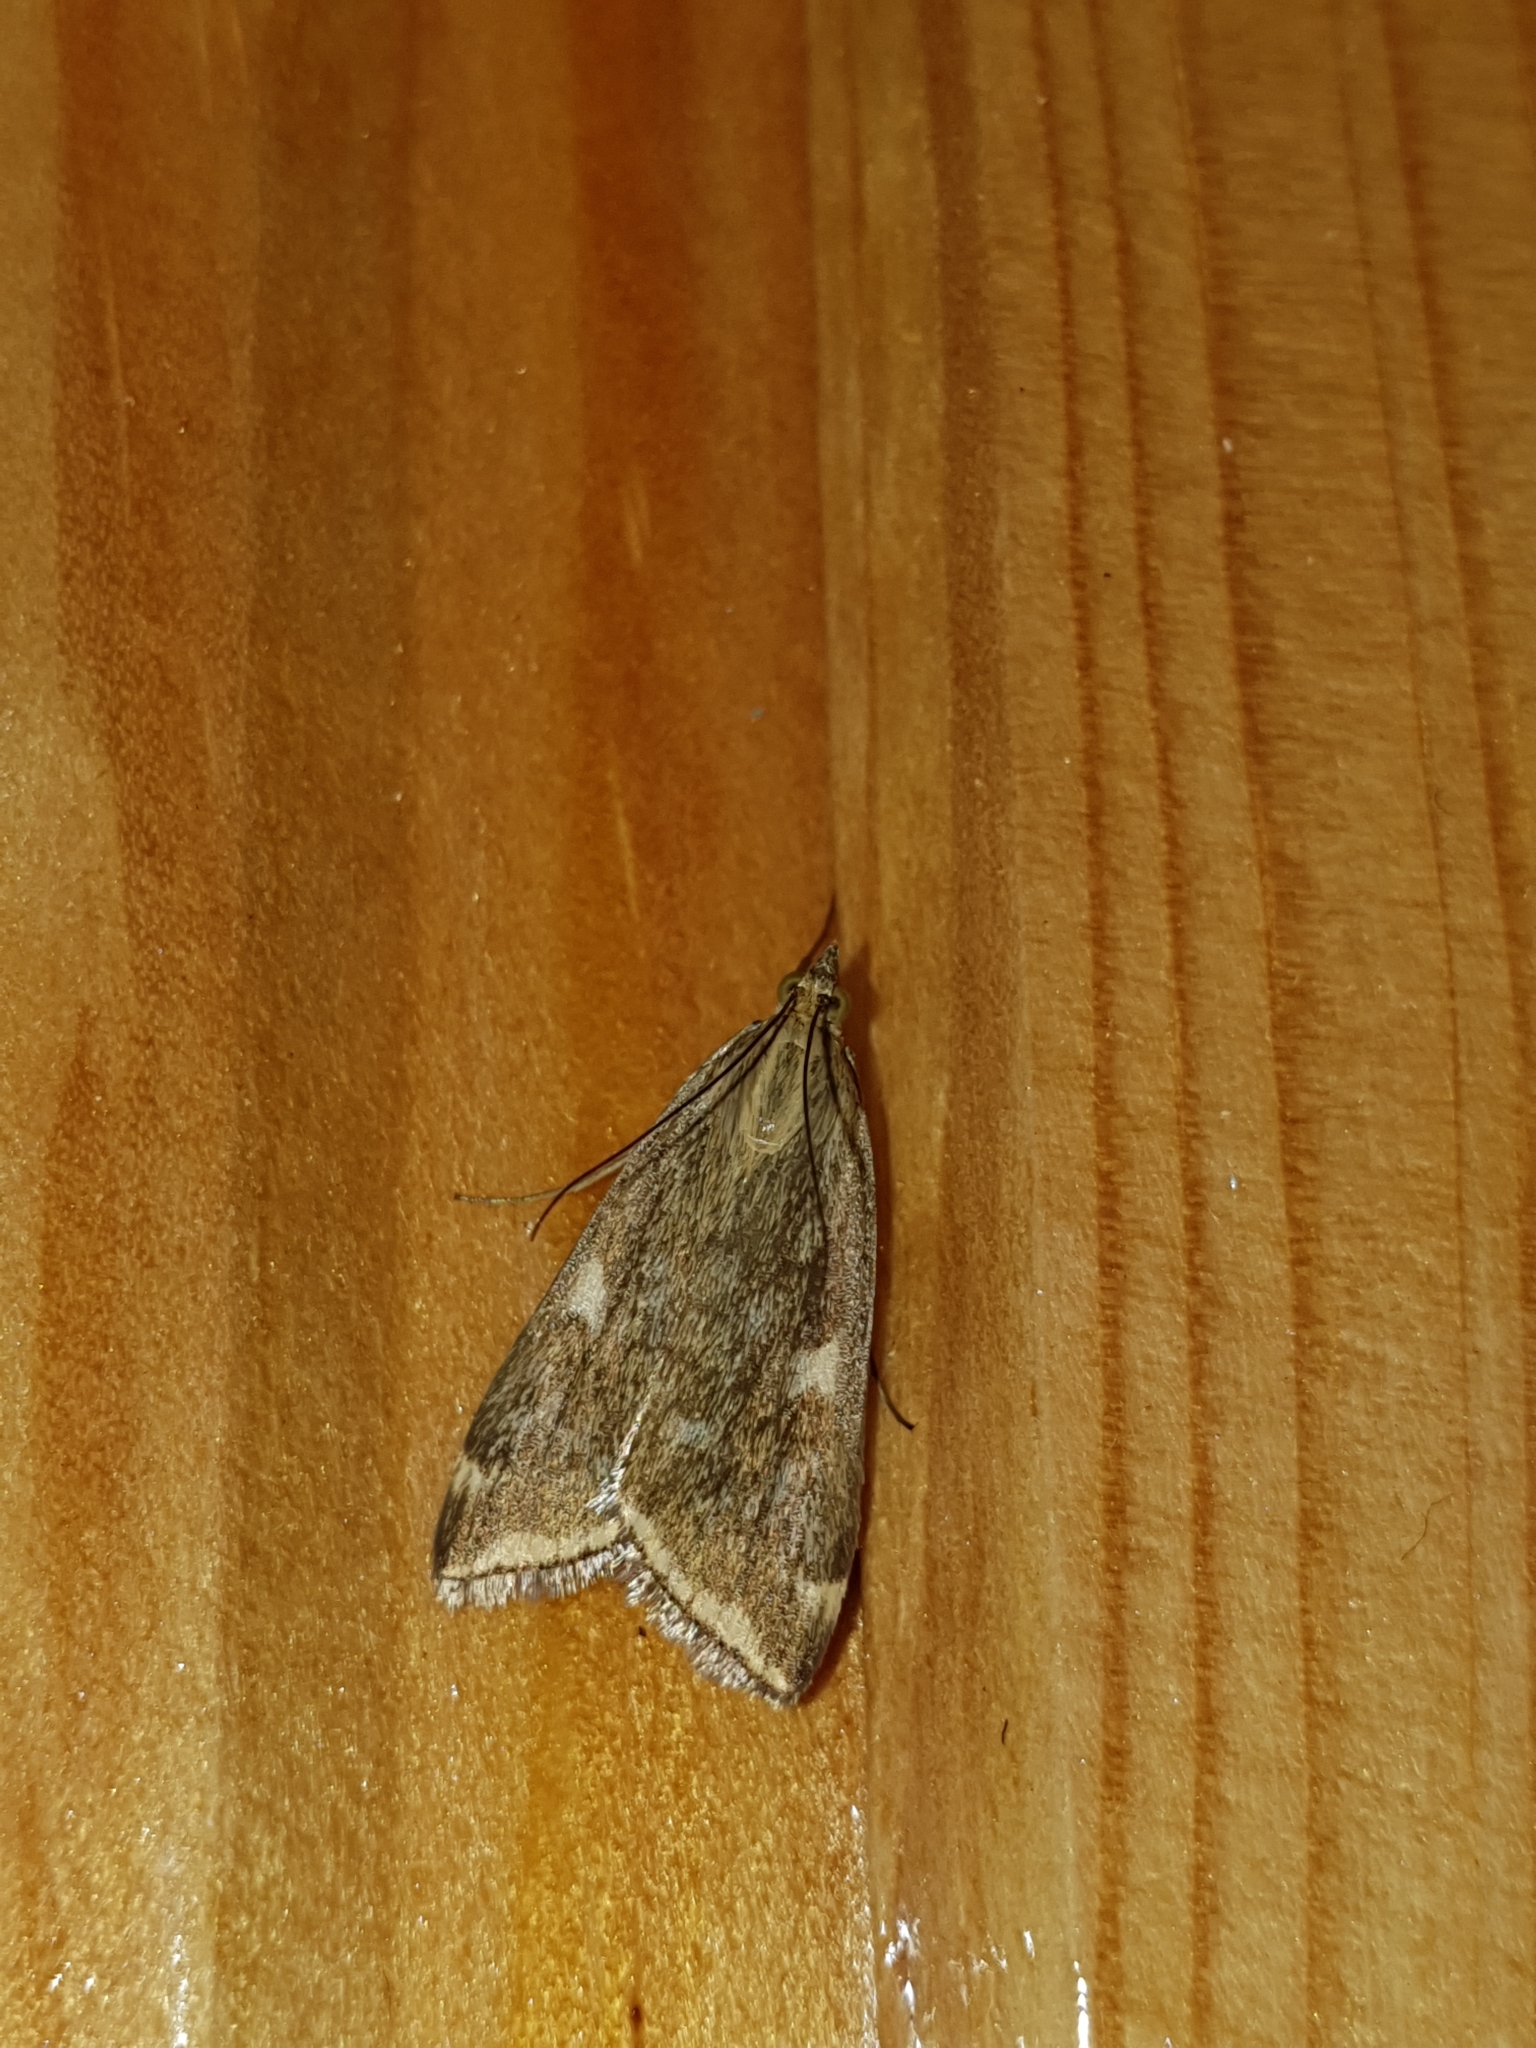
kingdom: Animalia
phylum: Arthropoda
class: Insecta
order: Lepidoptera
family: Crambidae
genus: Loxostege
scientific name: Loxostege sticticalis
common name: Crambid moth
